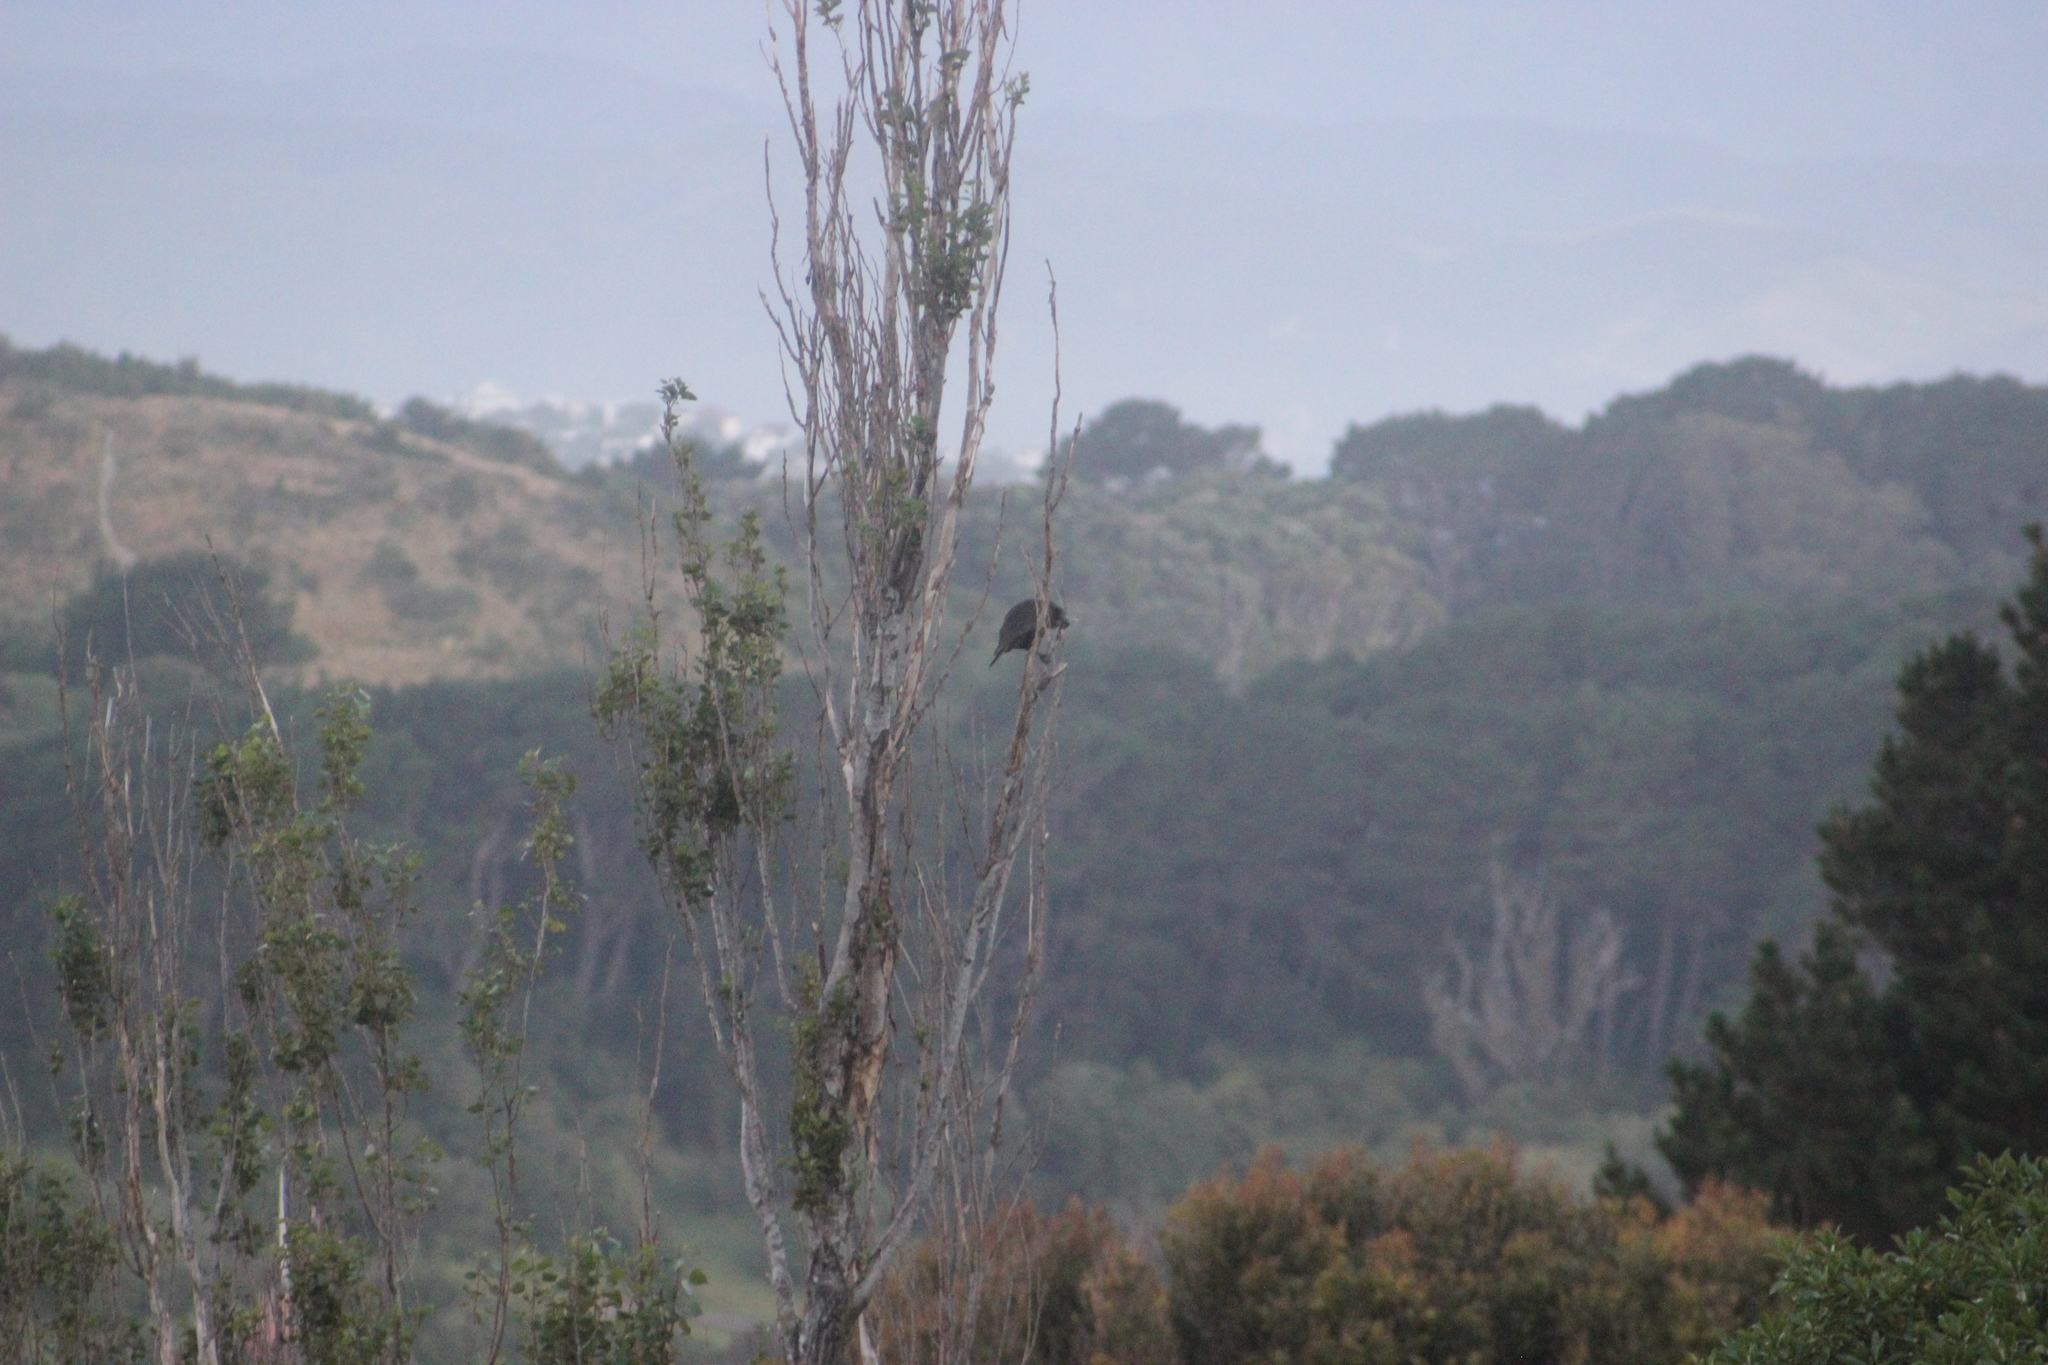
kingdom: Animalia
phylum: Chordata
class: Aves
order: Psittaciformes
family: Psittacidae
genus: Nestor
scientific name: Nestor meridionalis
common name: New zealand kaka
